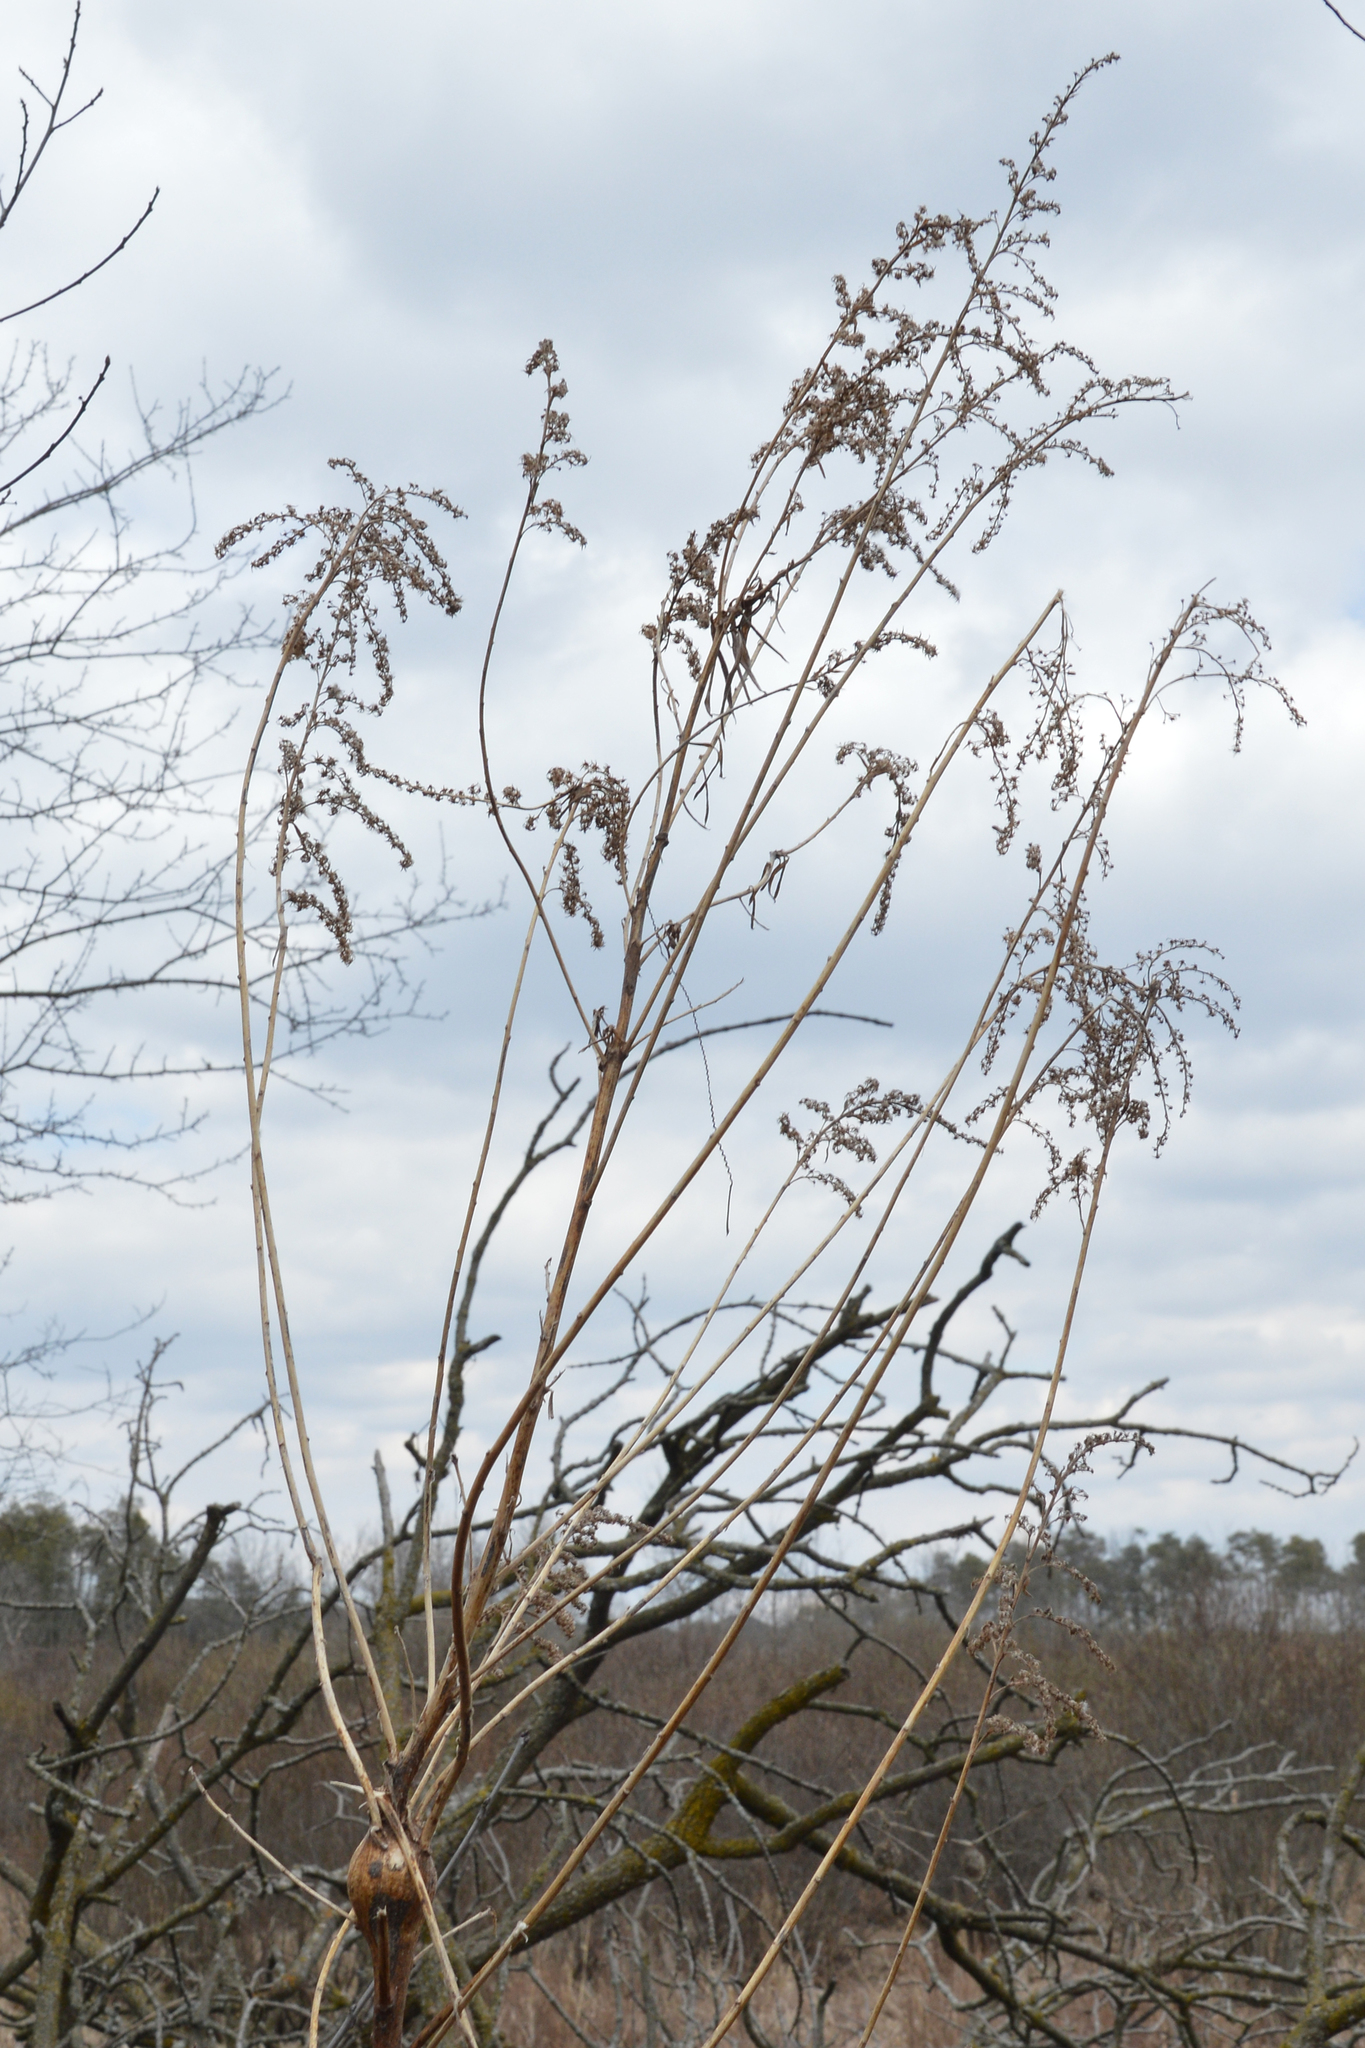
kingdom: Animalia
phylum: Arthropoda
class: Insecta
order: Diptera
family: Tephritidae
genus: Eurosta
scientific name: Eurosta solidaginis
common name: Goldenrod gall fly
